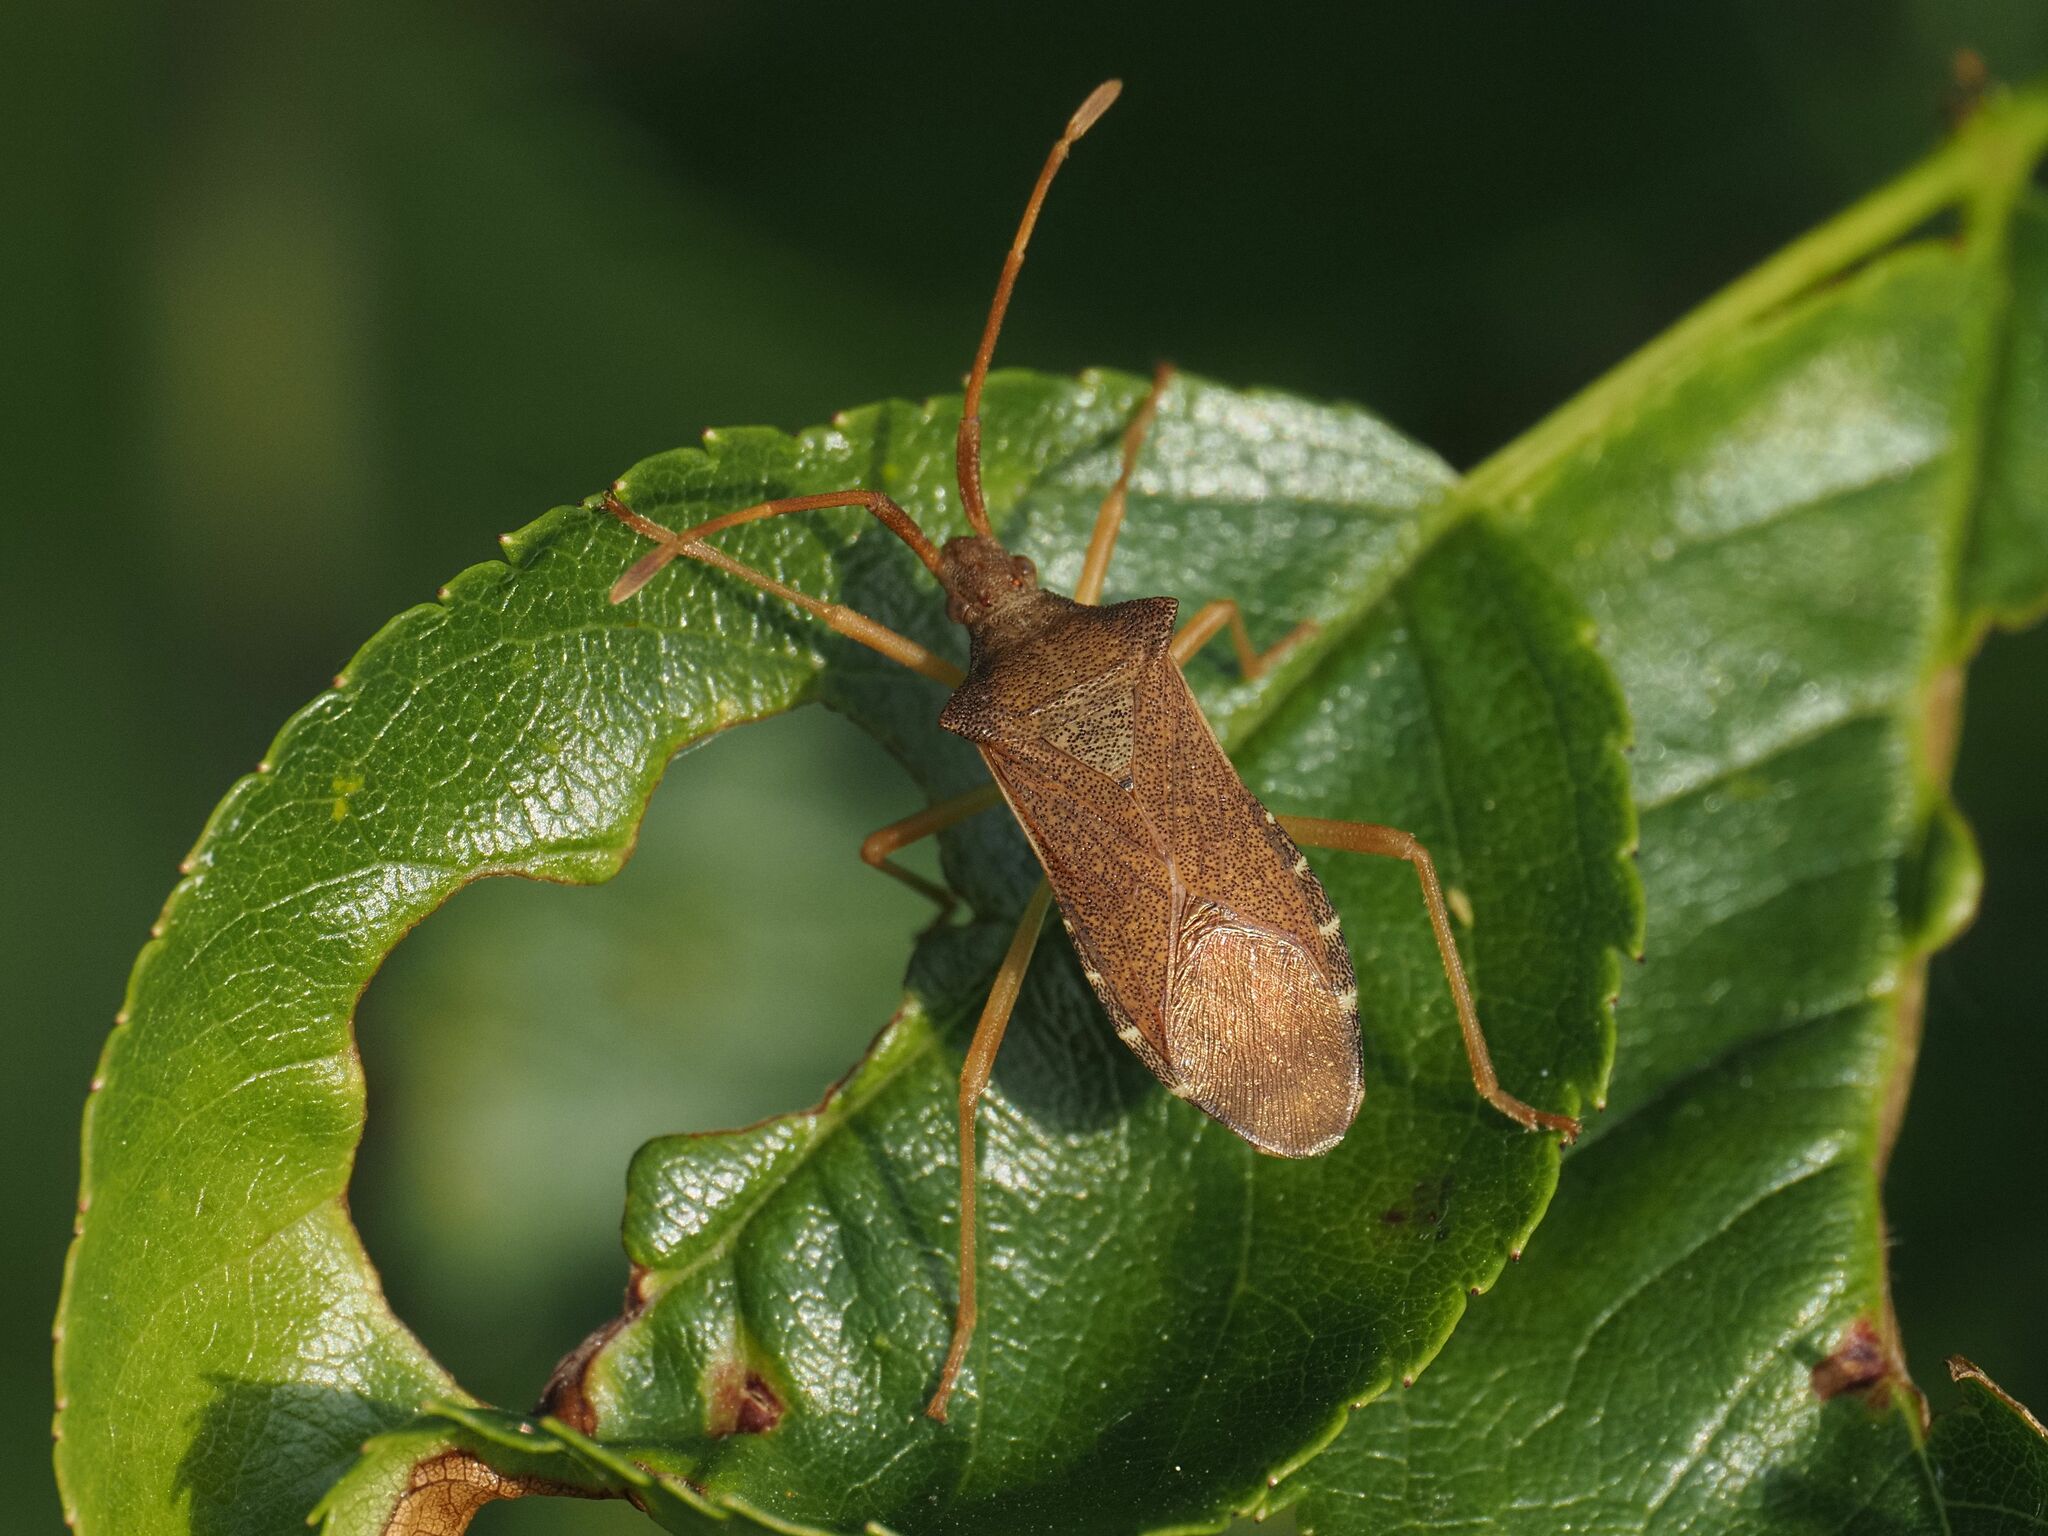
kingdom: Animalia
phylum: Arthropoda
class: Insecta
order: Hemiptera
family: Coreidae
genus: Gonocerus
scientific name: Gonocerus acuteangulatus
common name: Box bug
